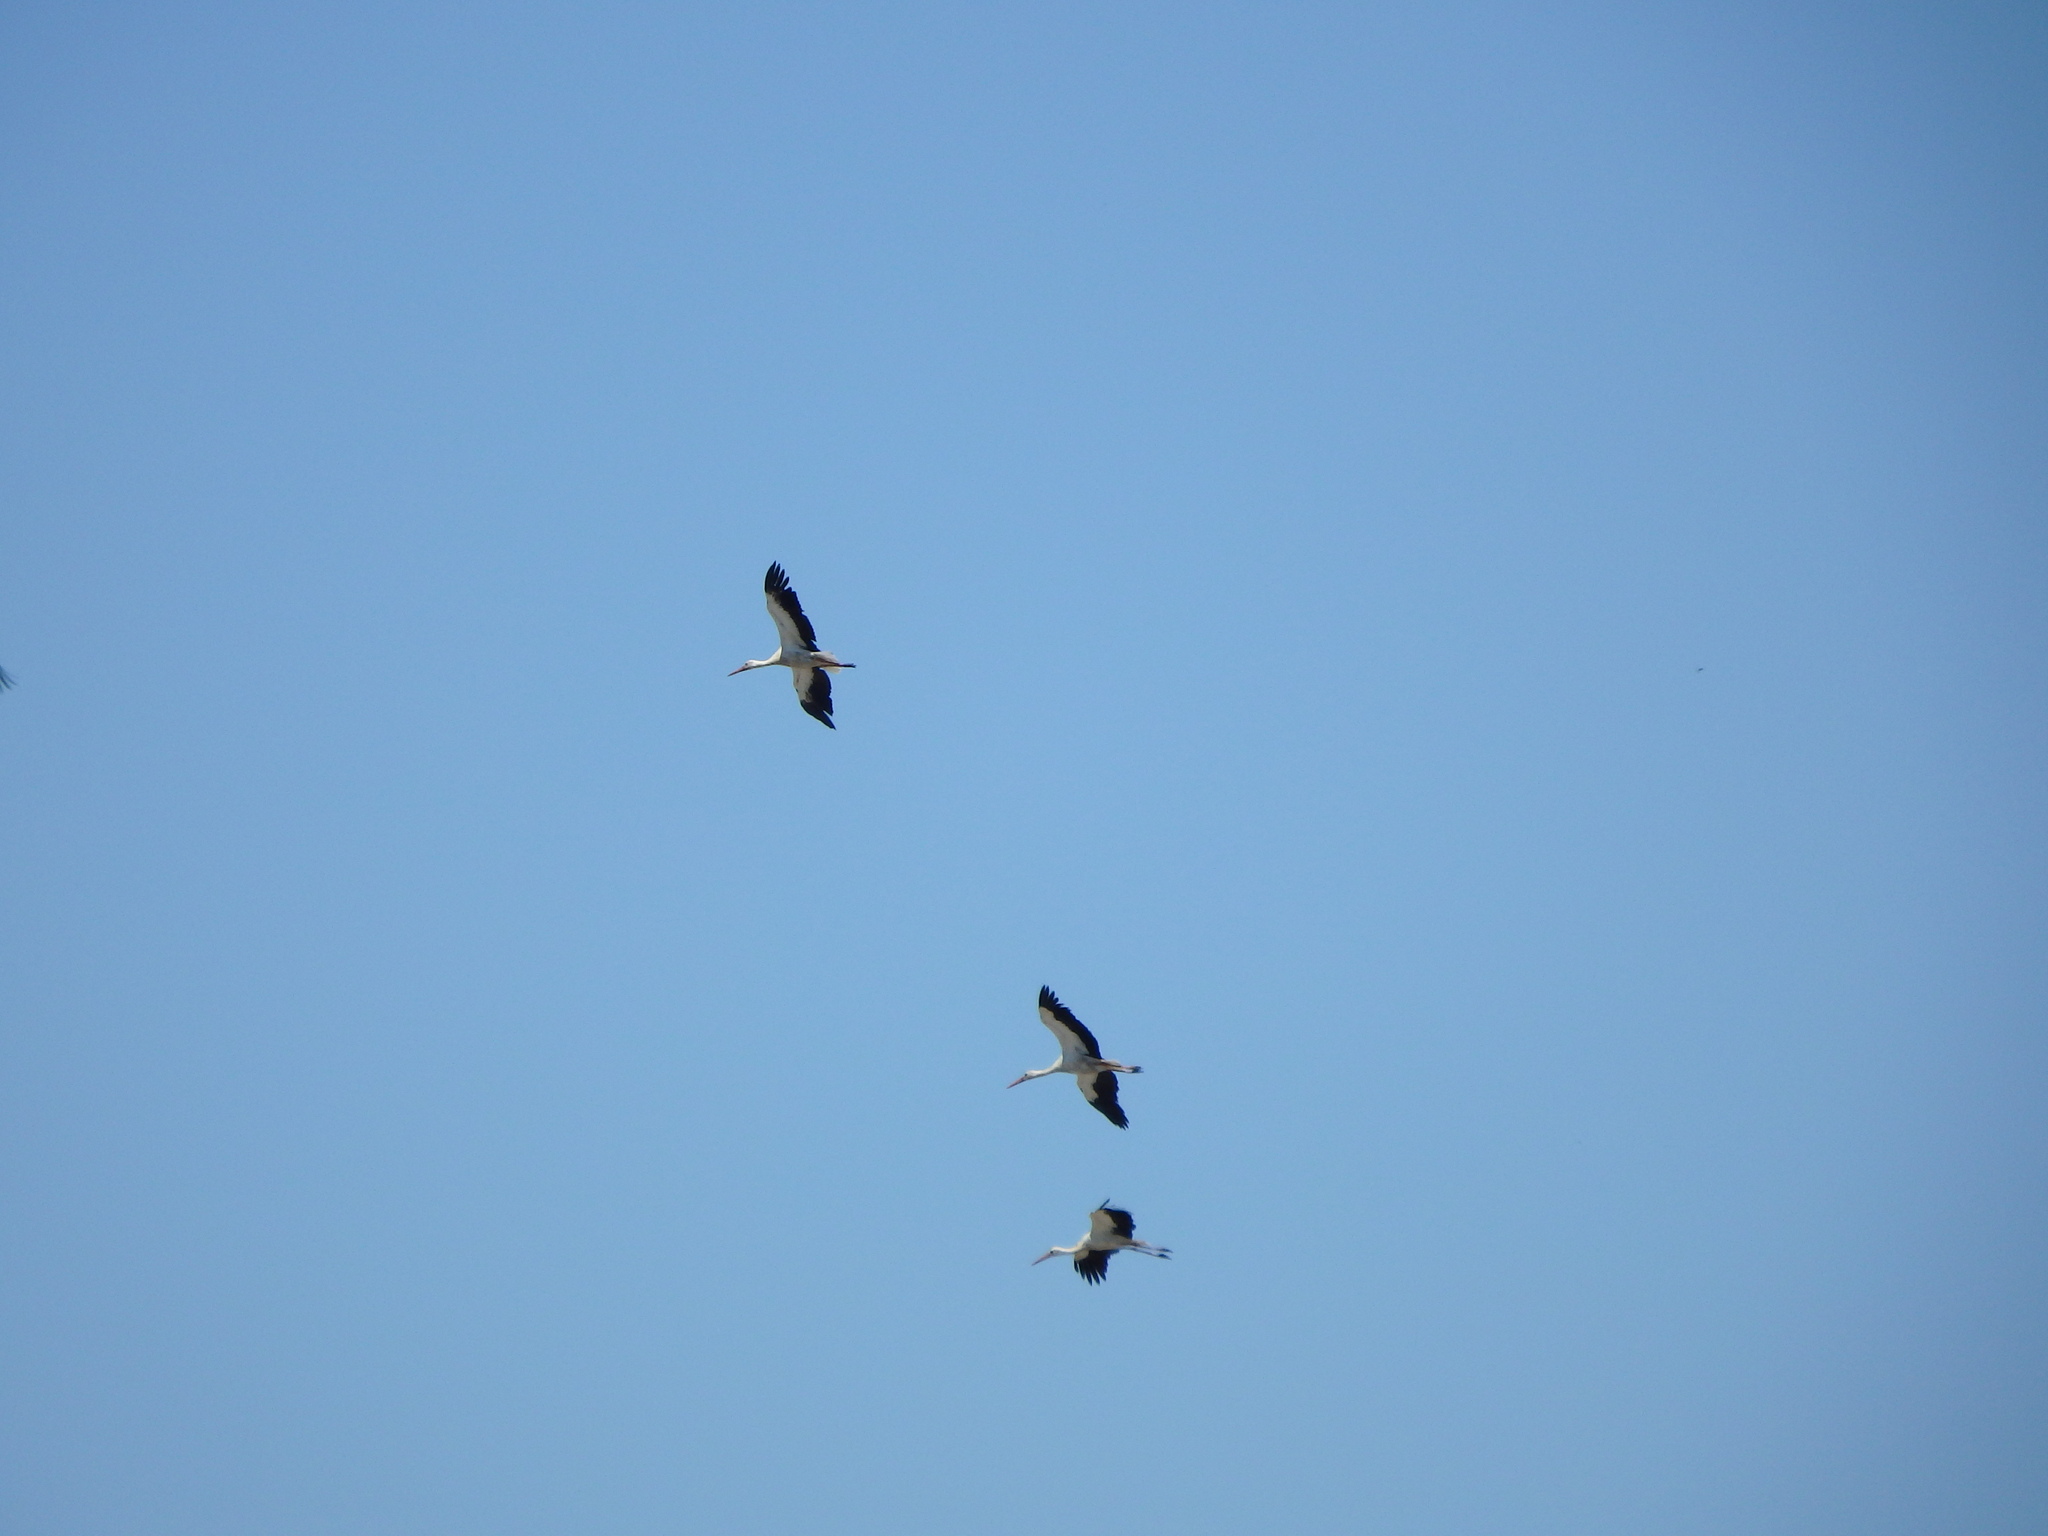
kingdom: Animalia
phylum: Chordata
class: Aves
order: Ciconiiformes
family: Ciconiidae
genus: Ciconia
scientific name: Ciconia ciconia
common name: White stork
